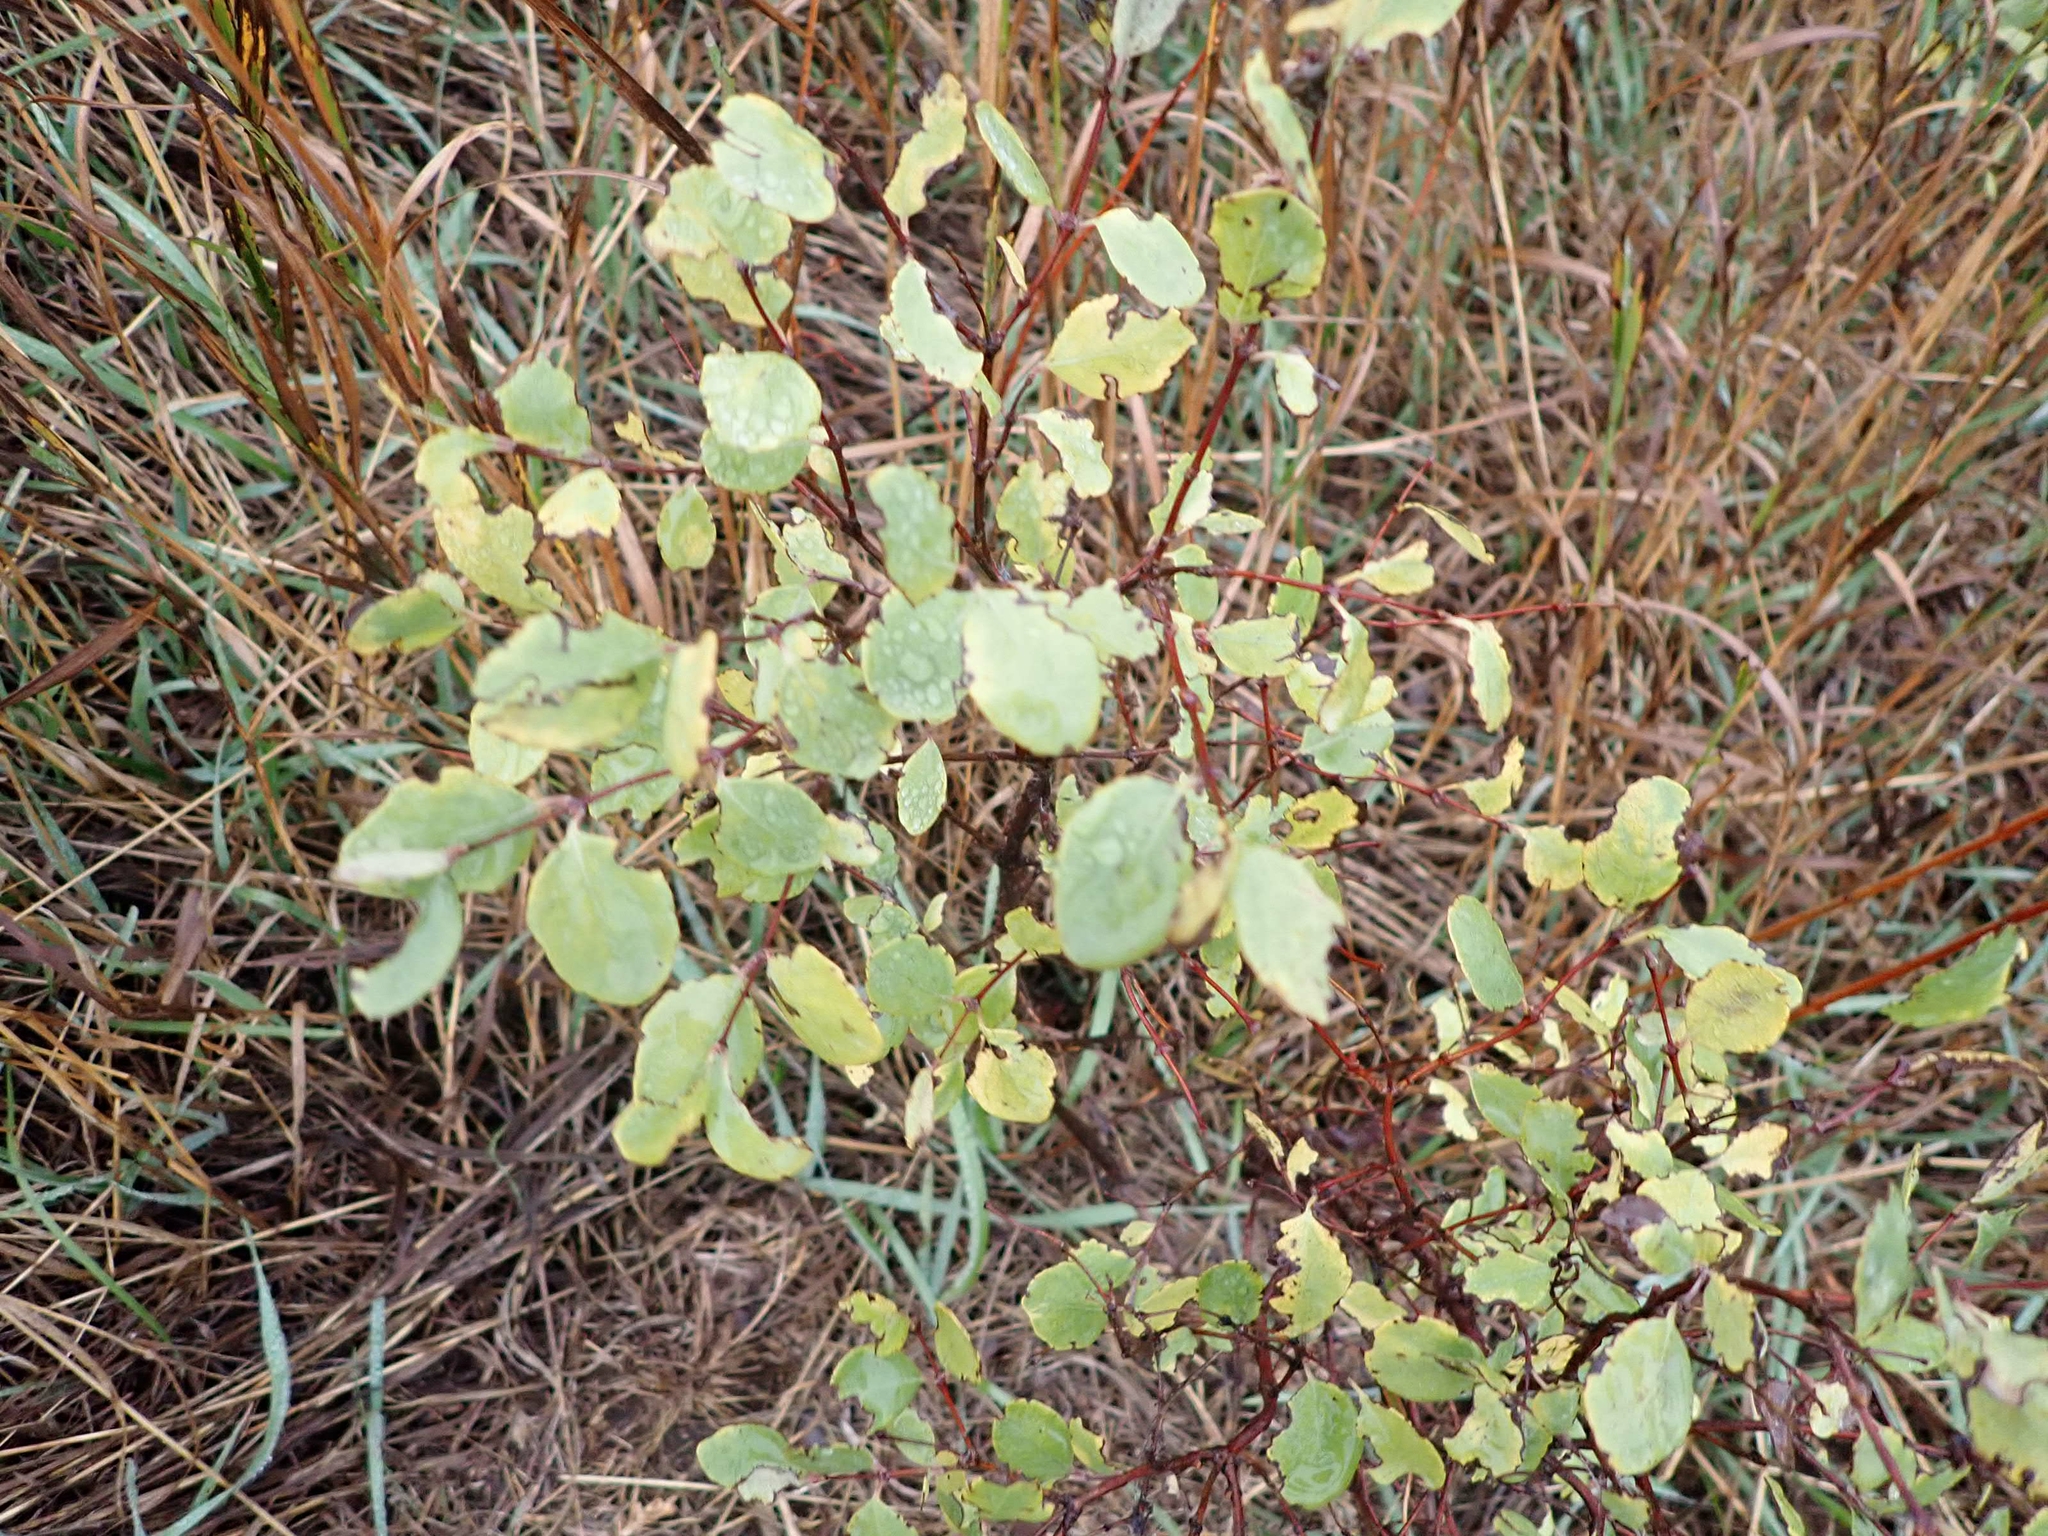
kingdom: Plantae
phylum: Tracheophyta
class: Magnoliopsida
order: Dipsacales
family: Caprifoliaceae
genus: Symphoricarpos
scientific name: Symphoricarpos occidentalis
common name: Wolfberry
